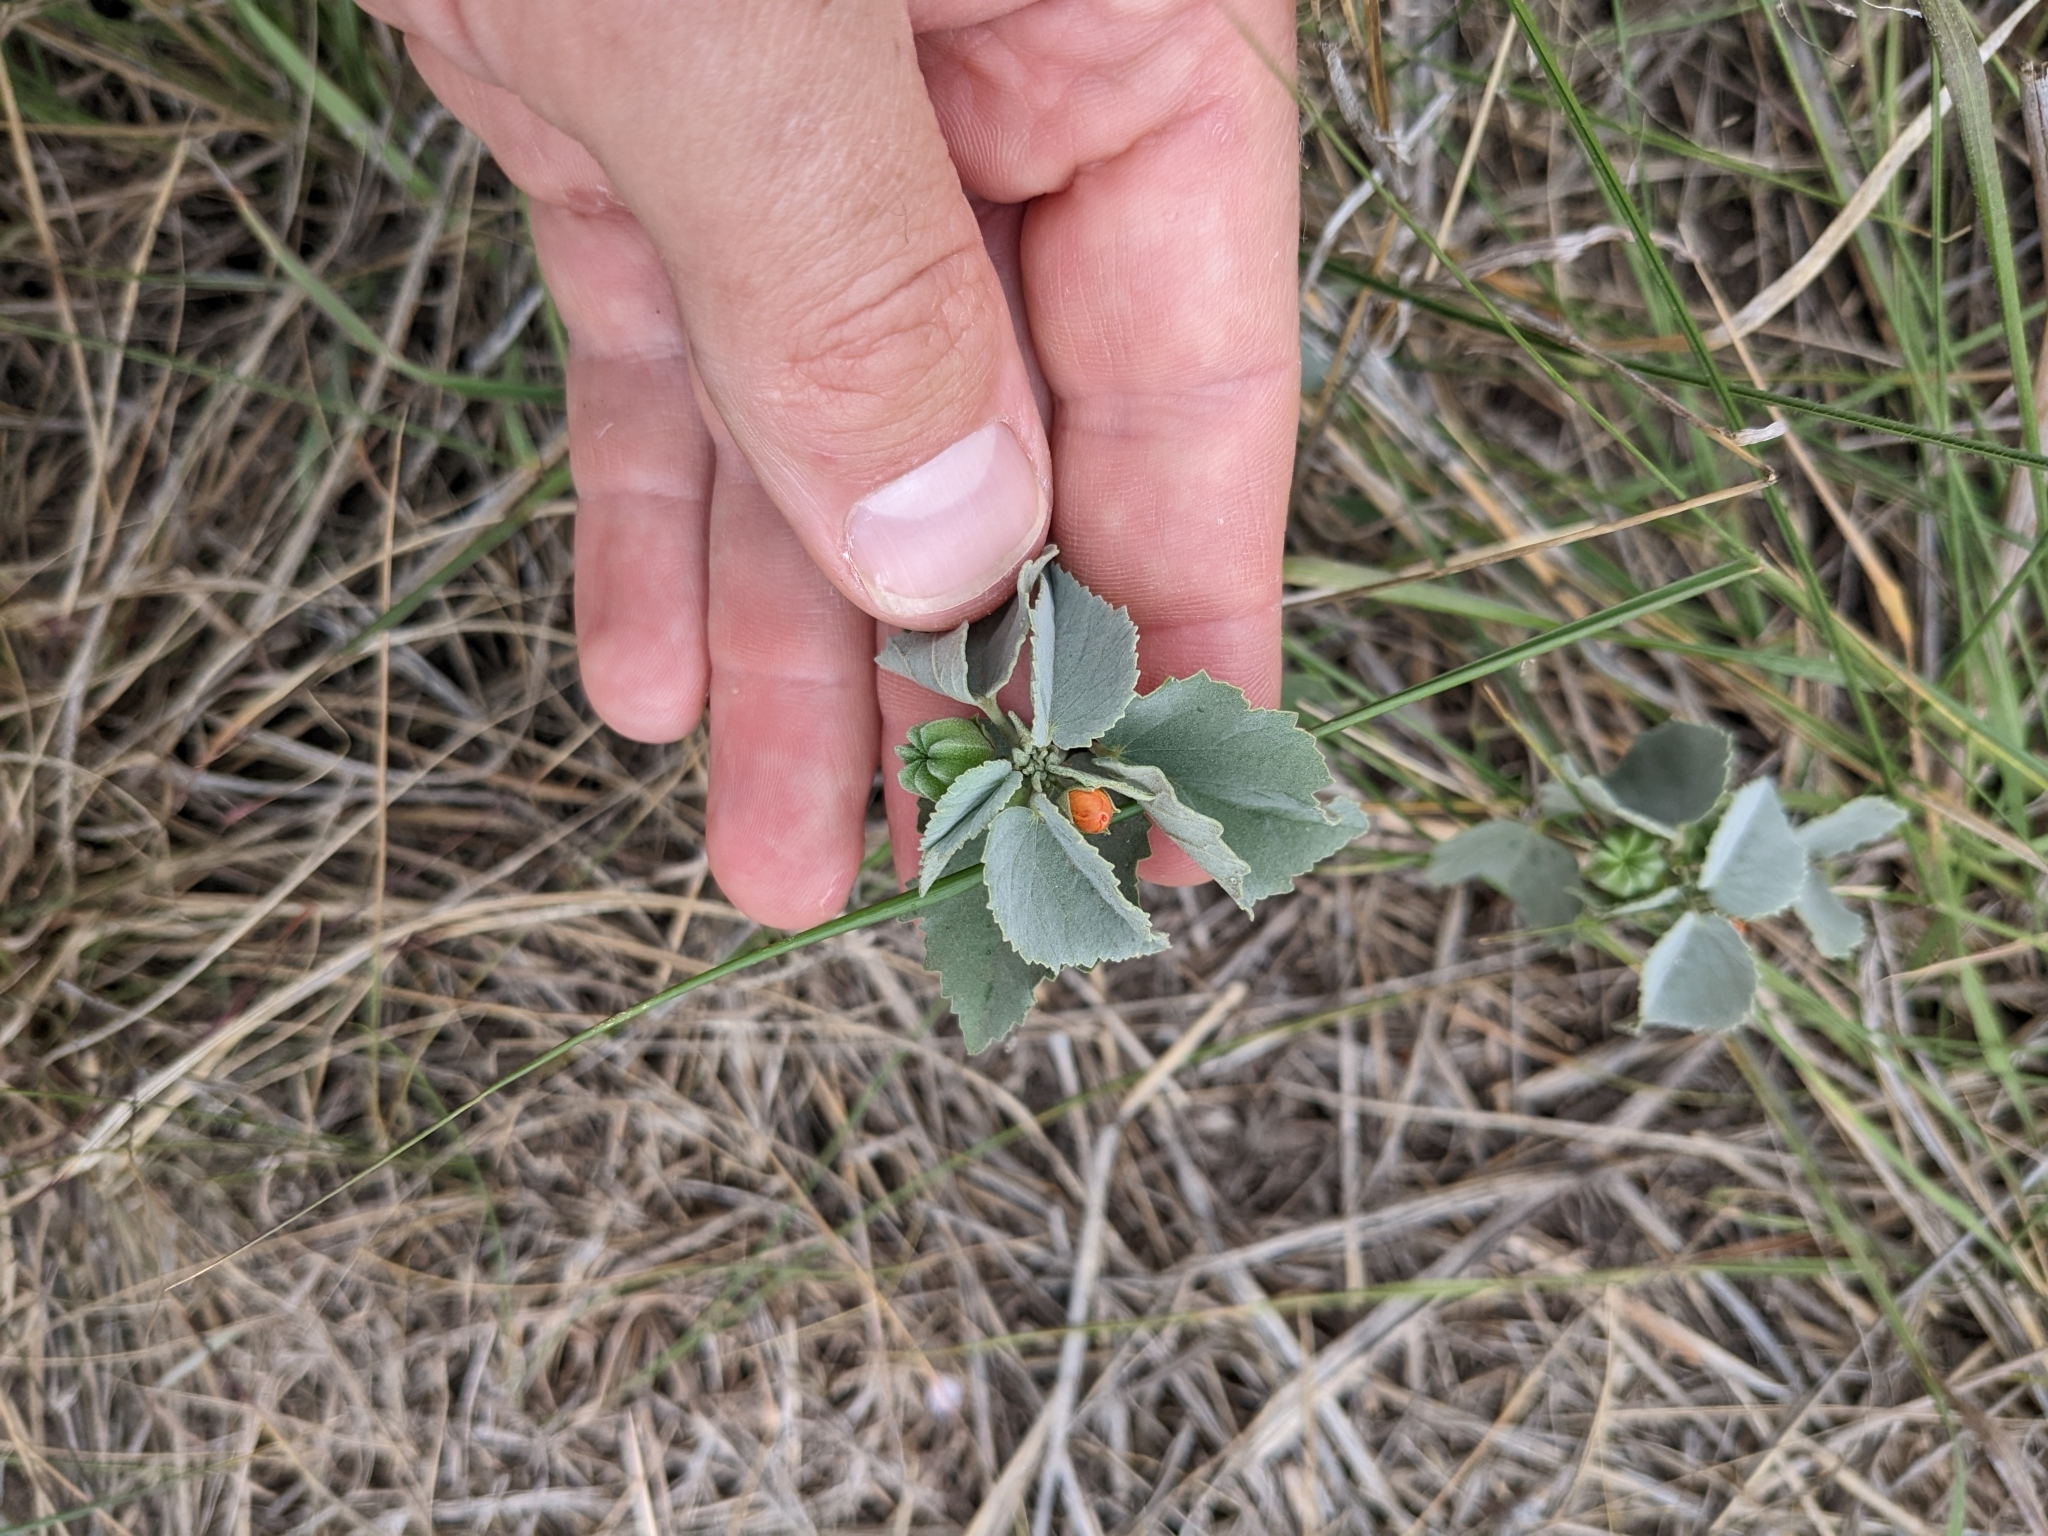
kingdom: Plantae
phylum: Tracheophyta
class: Magnoliopsida
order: Malvales
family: Malvaceae
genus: Abutilon
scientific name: Abutilon fruticosum
